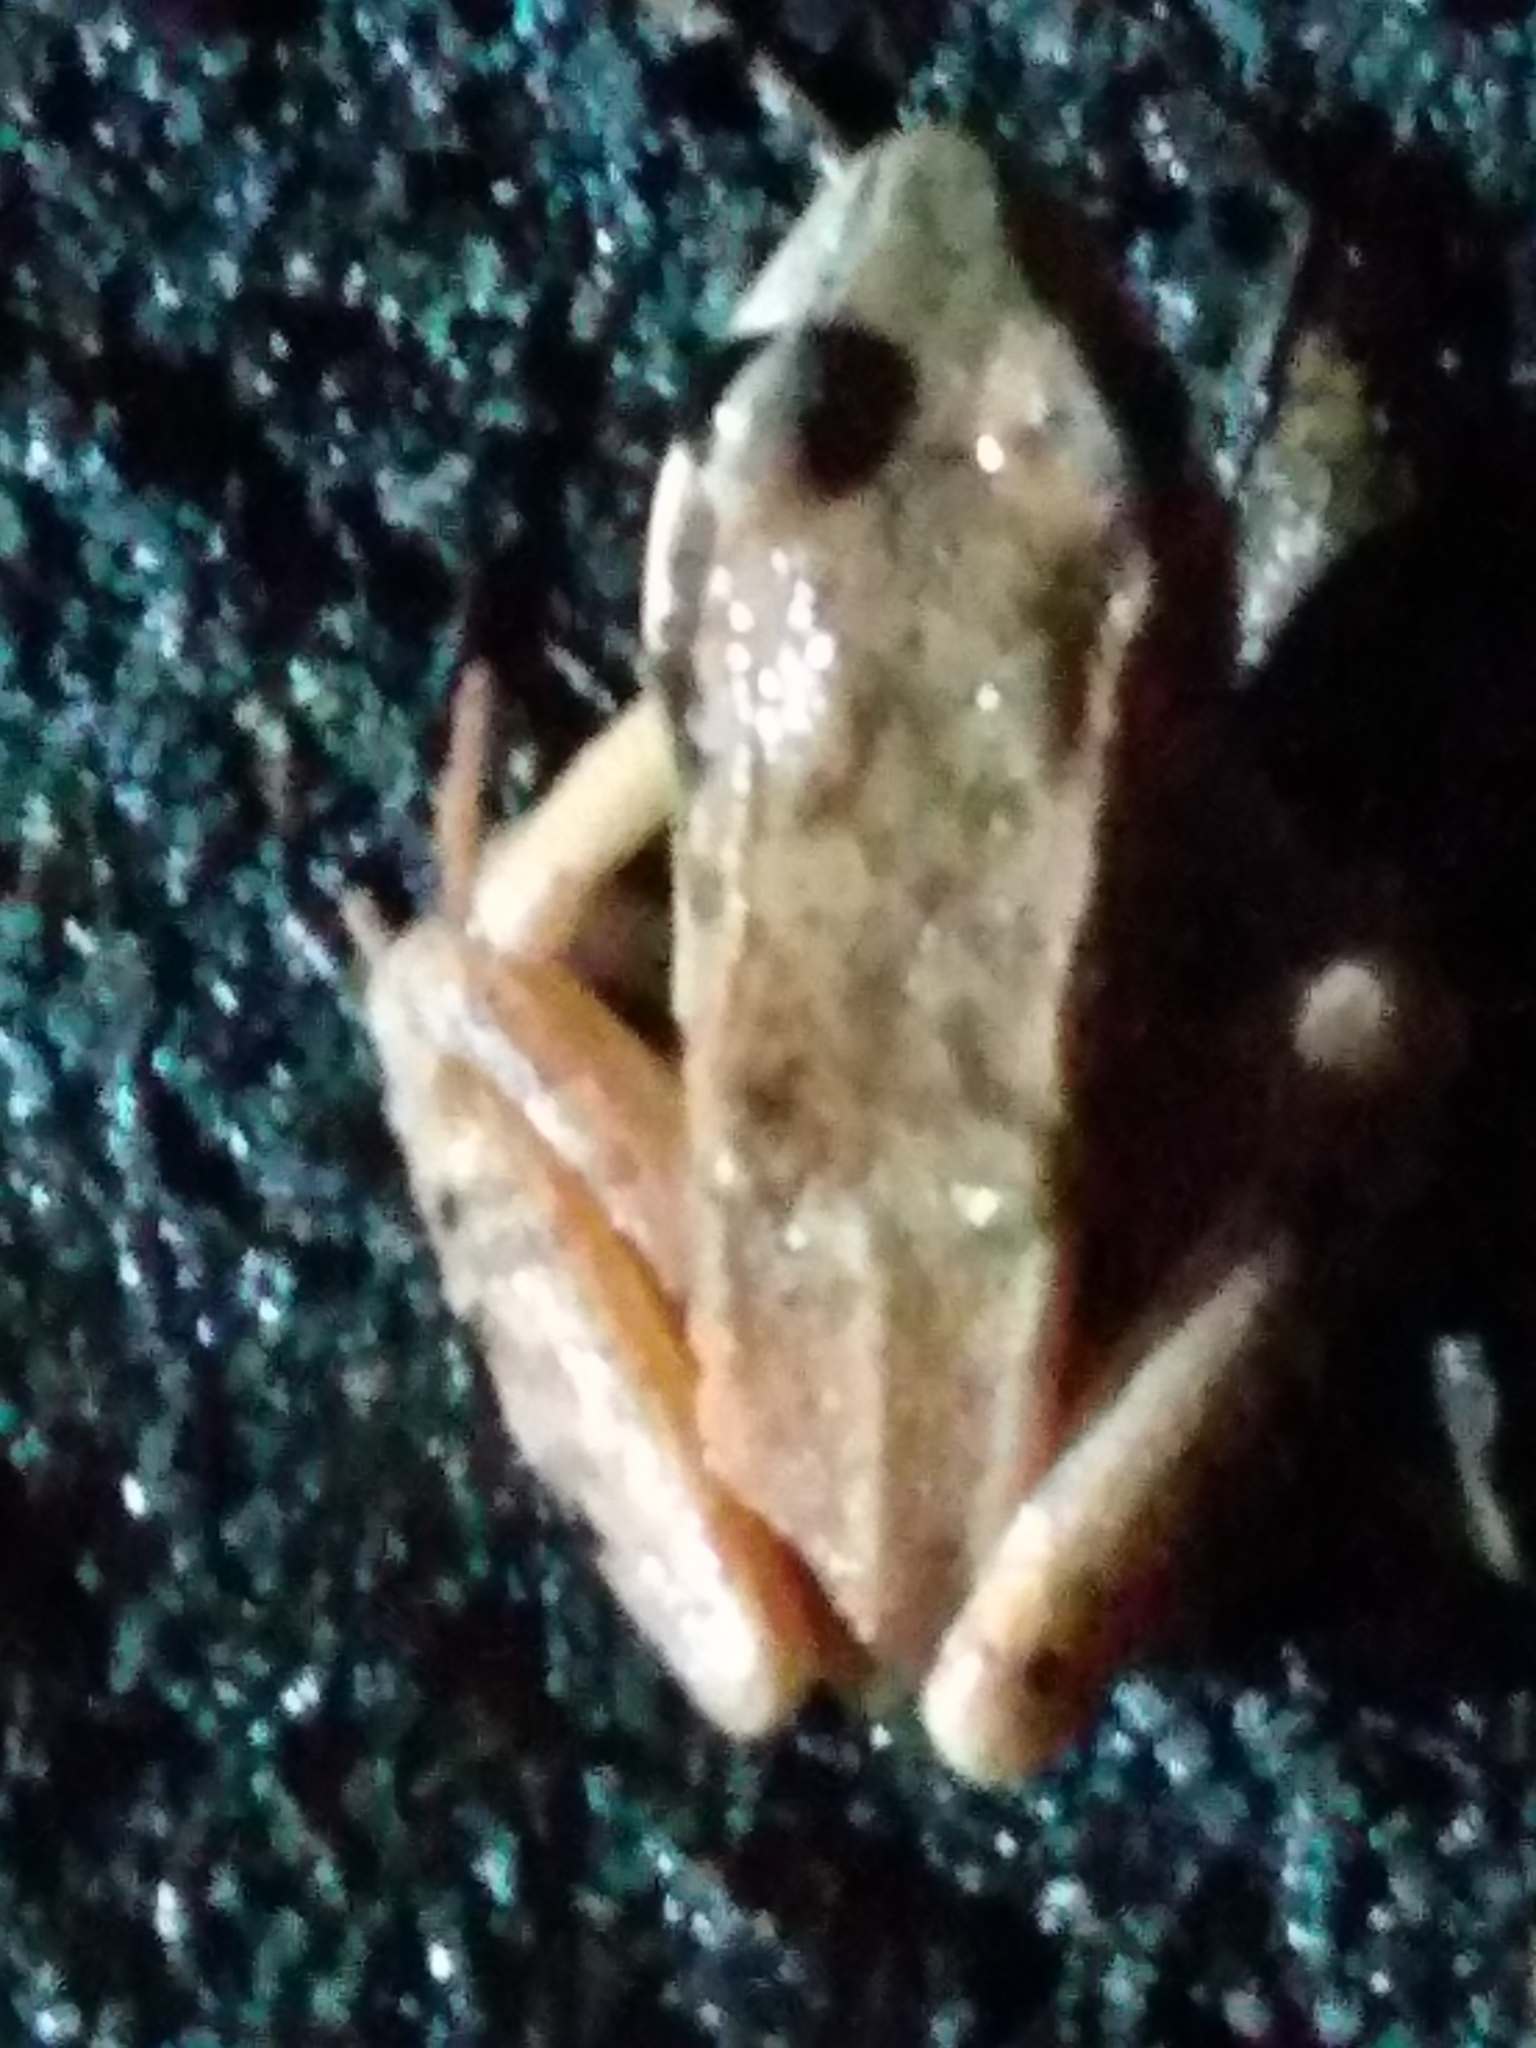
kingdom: Animalia
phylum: Chordata
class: Amphibia
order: Anura
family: Ranidae
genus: Lithobates
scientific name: Lithobates sylvaticus
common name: Wood frog
